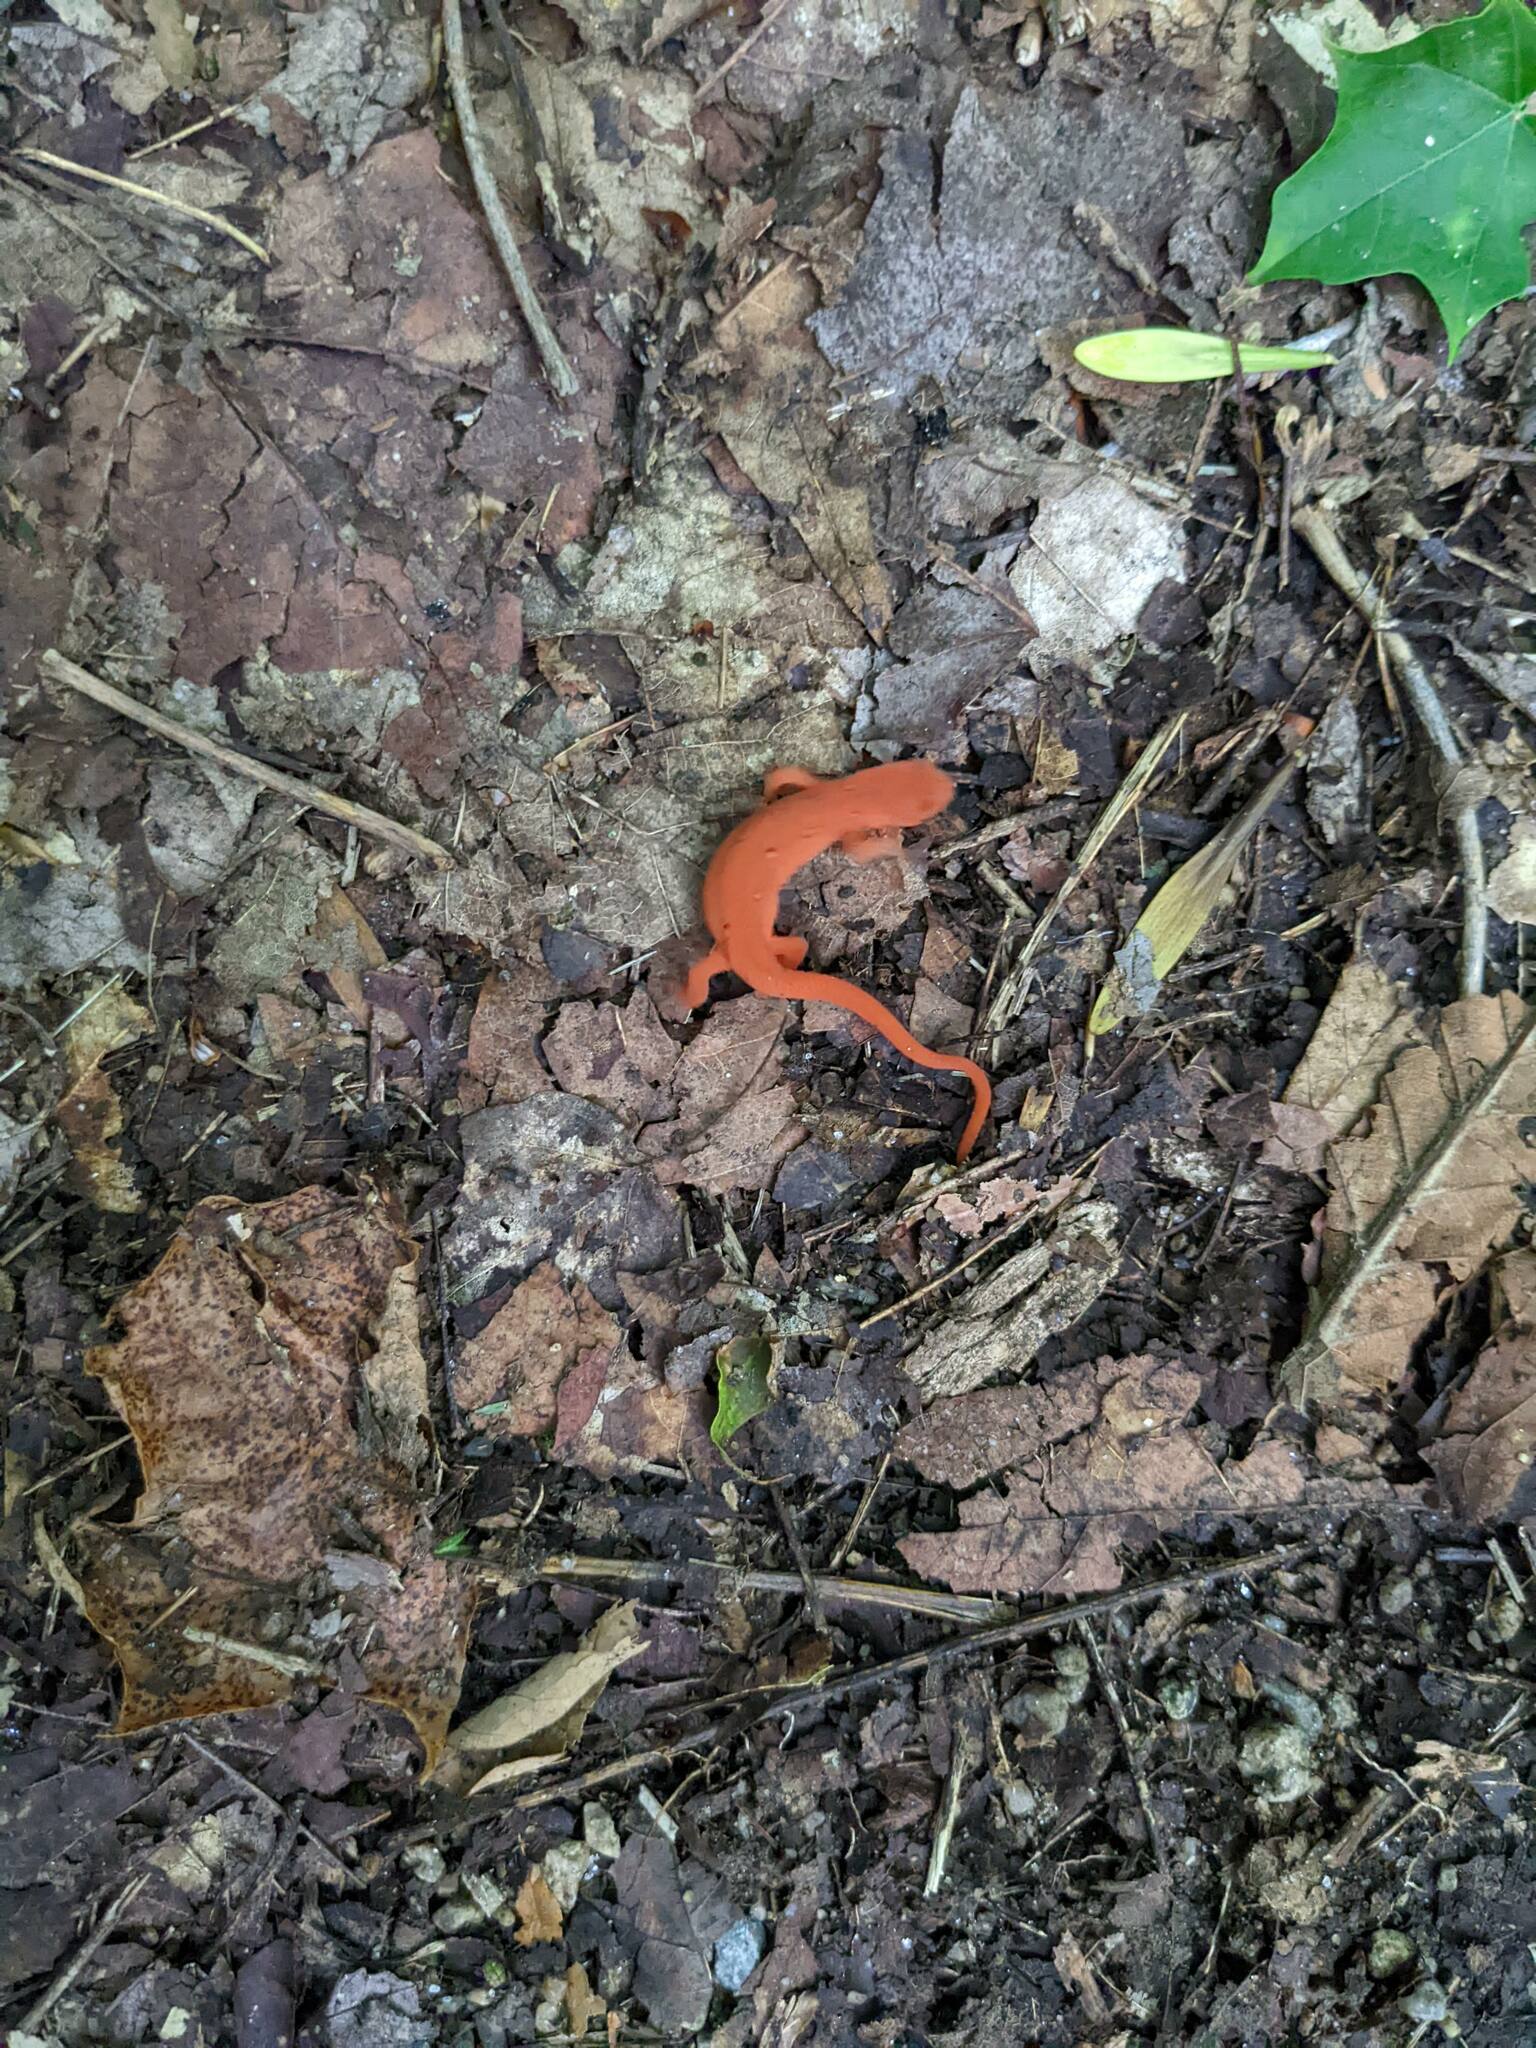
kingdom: Animalia
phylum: Chordata
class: Amphibia
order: Caudata
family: Salamandridae
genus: Notophthalmus
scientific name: Notophthalmus viridescens
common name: Eastern newt
